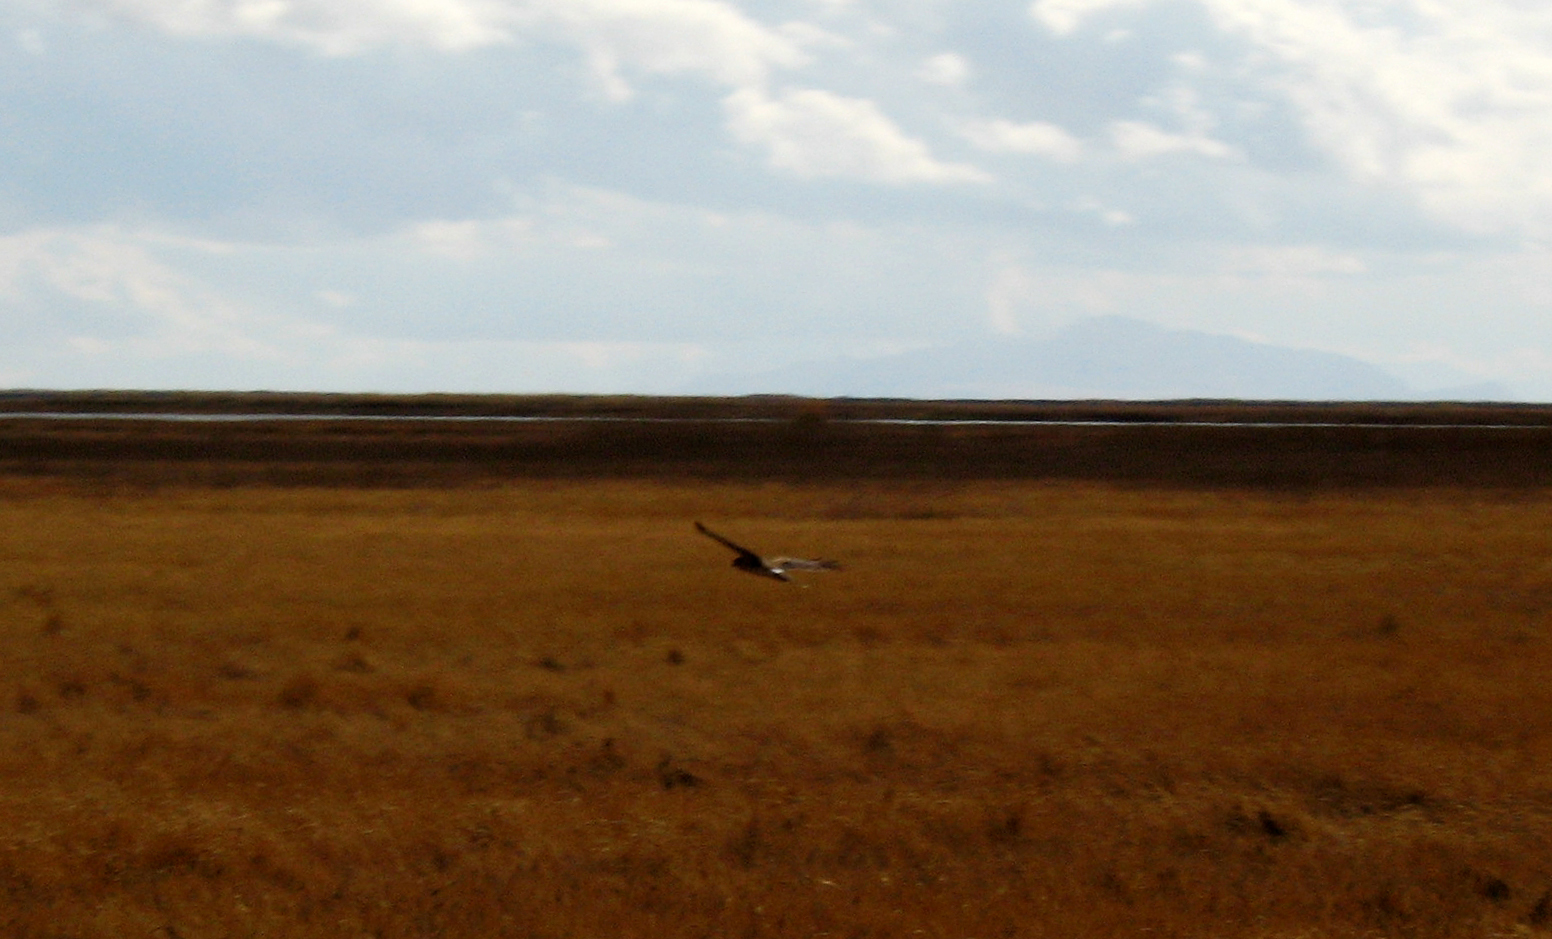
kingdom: Animalia
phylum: Chordata
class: Aves
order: Accipitriformes
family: Accipitridae
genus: Circus
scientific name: Circus cyaneus
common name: Hen harrier
